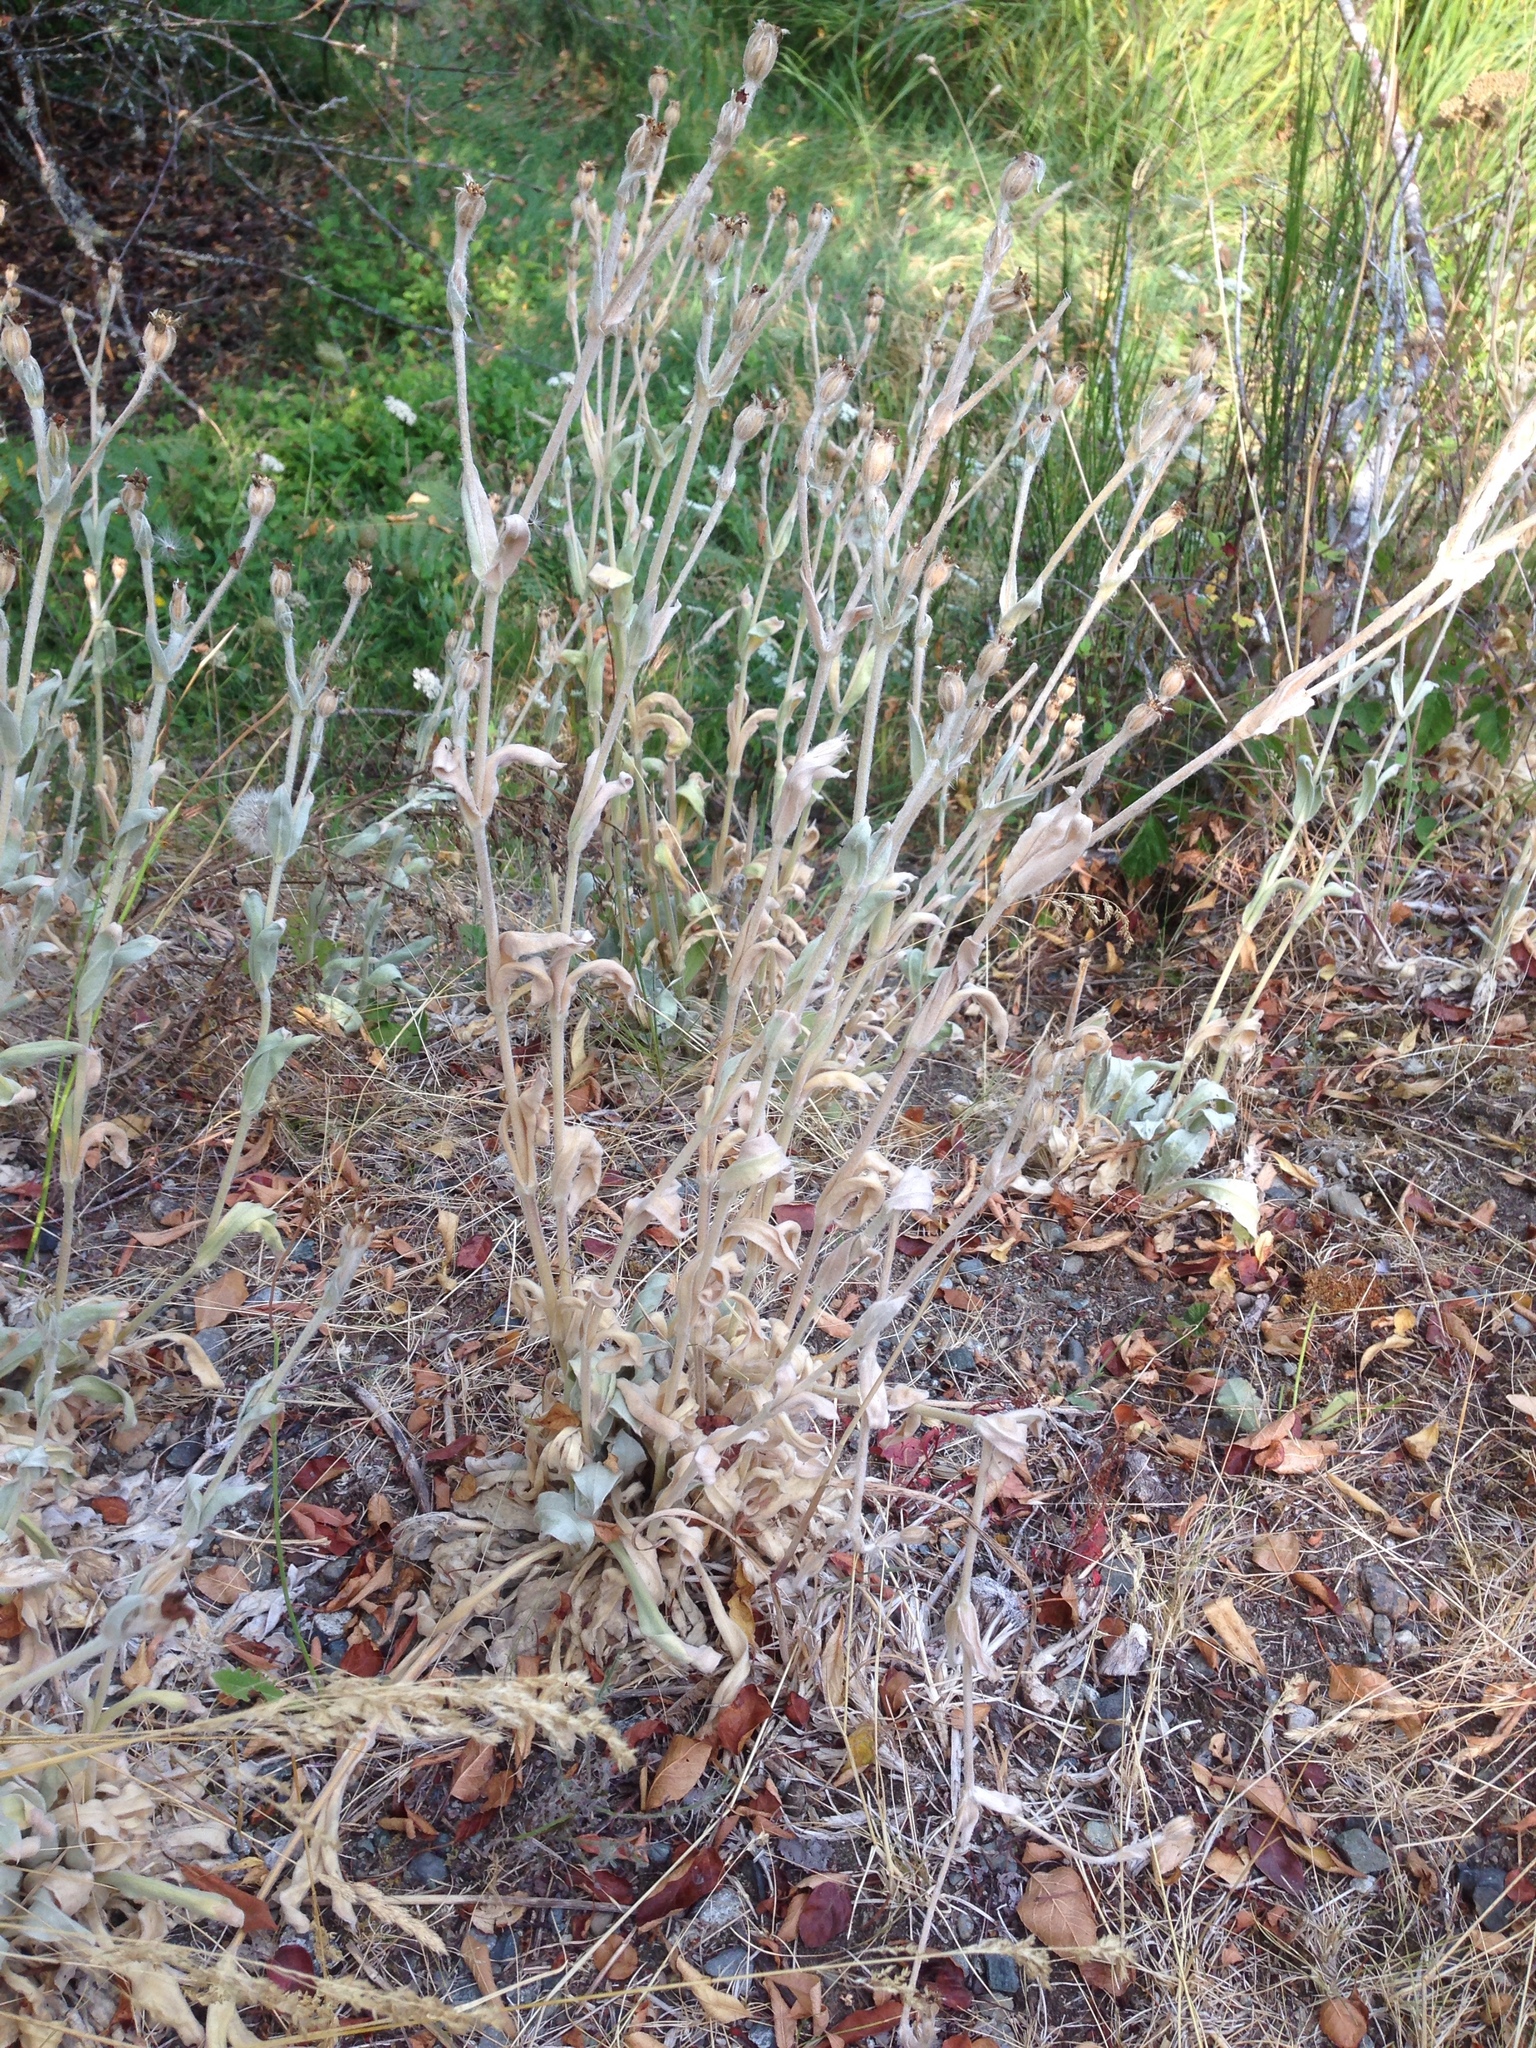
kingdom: Plantae
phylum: Tracheophyta
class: Magnoliopsida
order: Caryophyllales
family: Caryophyllaceae
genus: Silene
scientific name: Silene coronaria
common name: Rose campion
